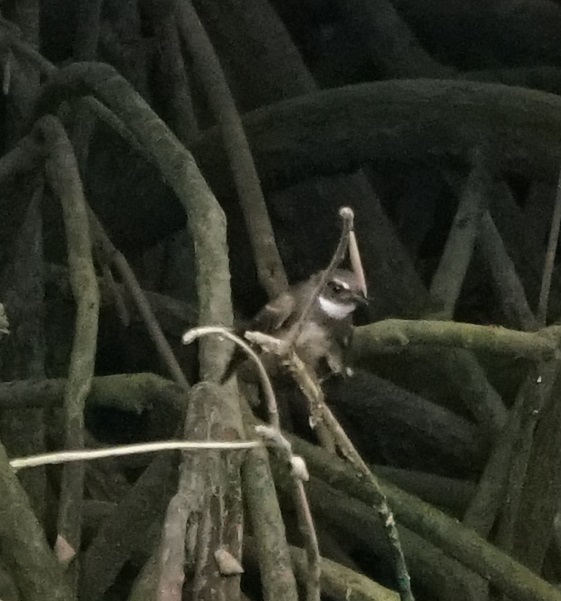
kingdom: Animalia
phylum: Chordata
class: Aves
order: Passeriformes
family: Rhipiduridae
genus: Rhipidura
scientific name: Rhipidura javanica
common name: Pied fantail
